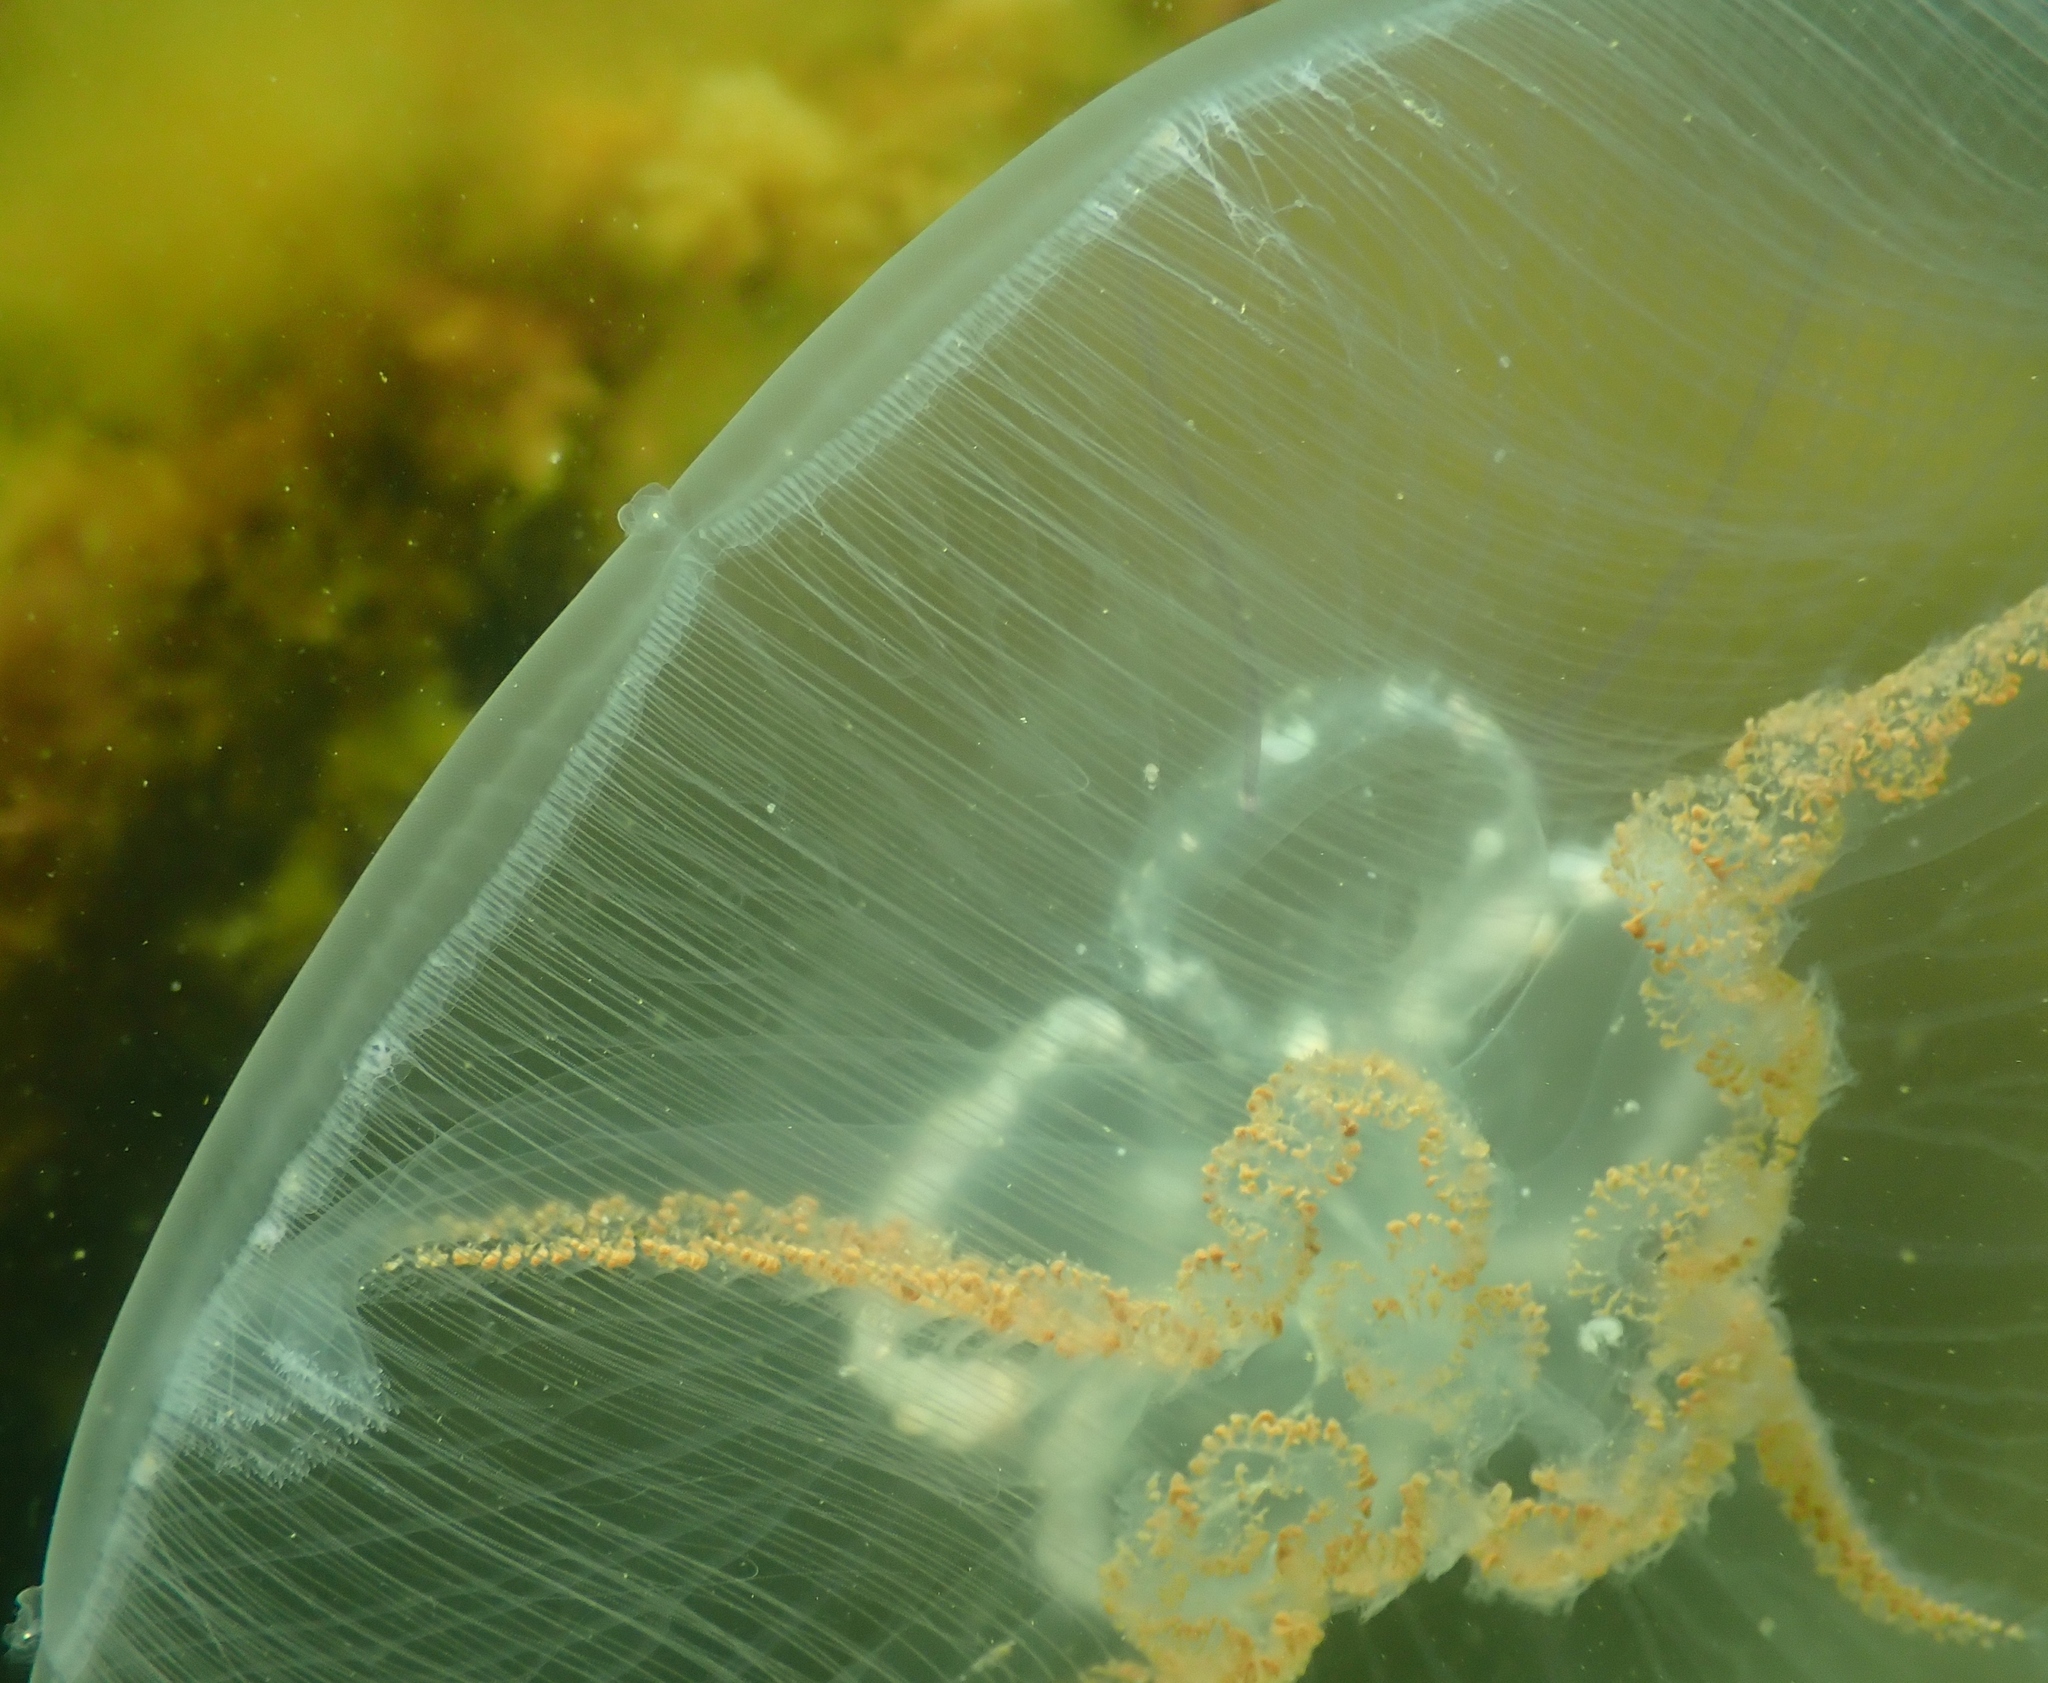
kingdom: Animalia
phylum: Cnidaria
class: Scyphozoa
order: Semaeostomeae
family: Ulmaridae
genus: Aurelia
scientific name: Aurelia aurita
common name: Moon jellyfish
